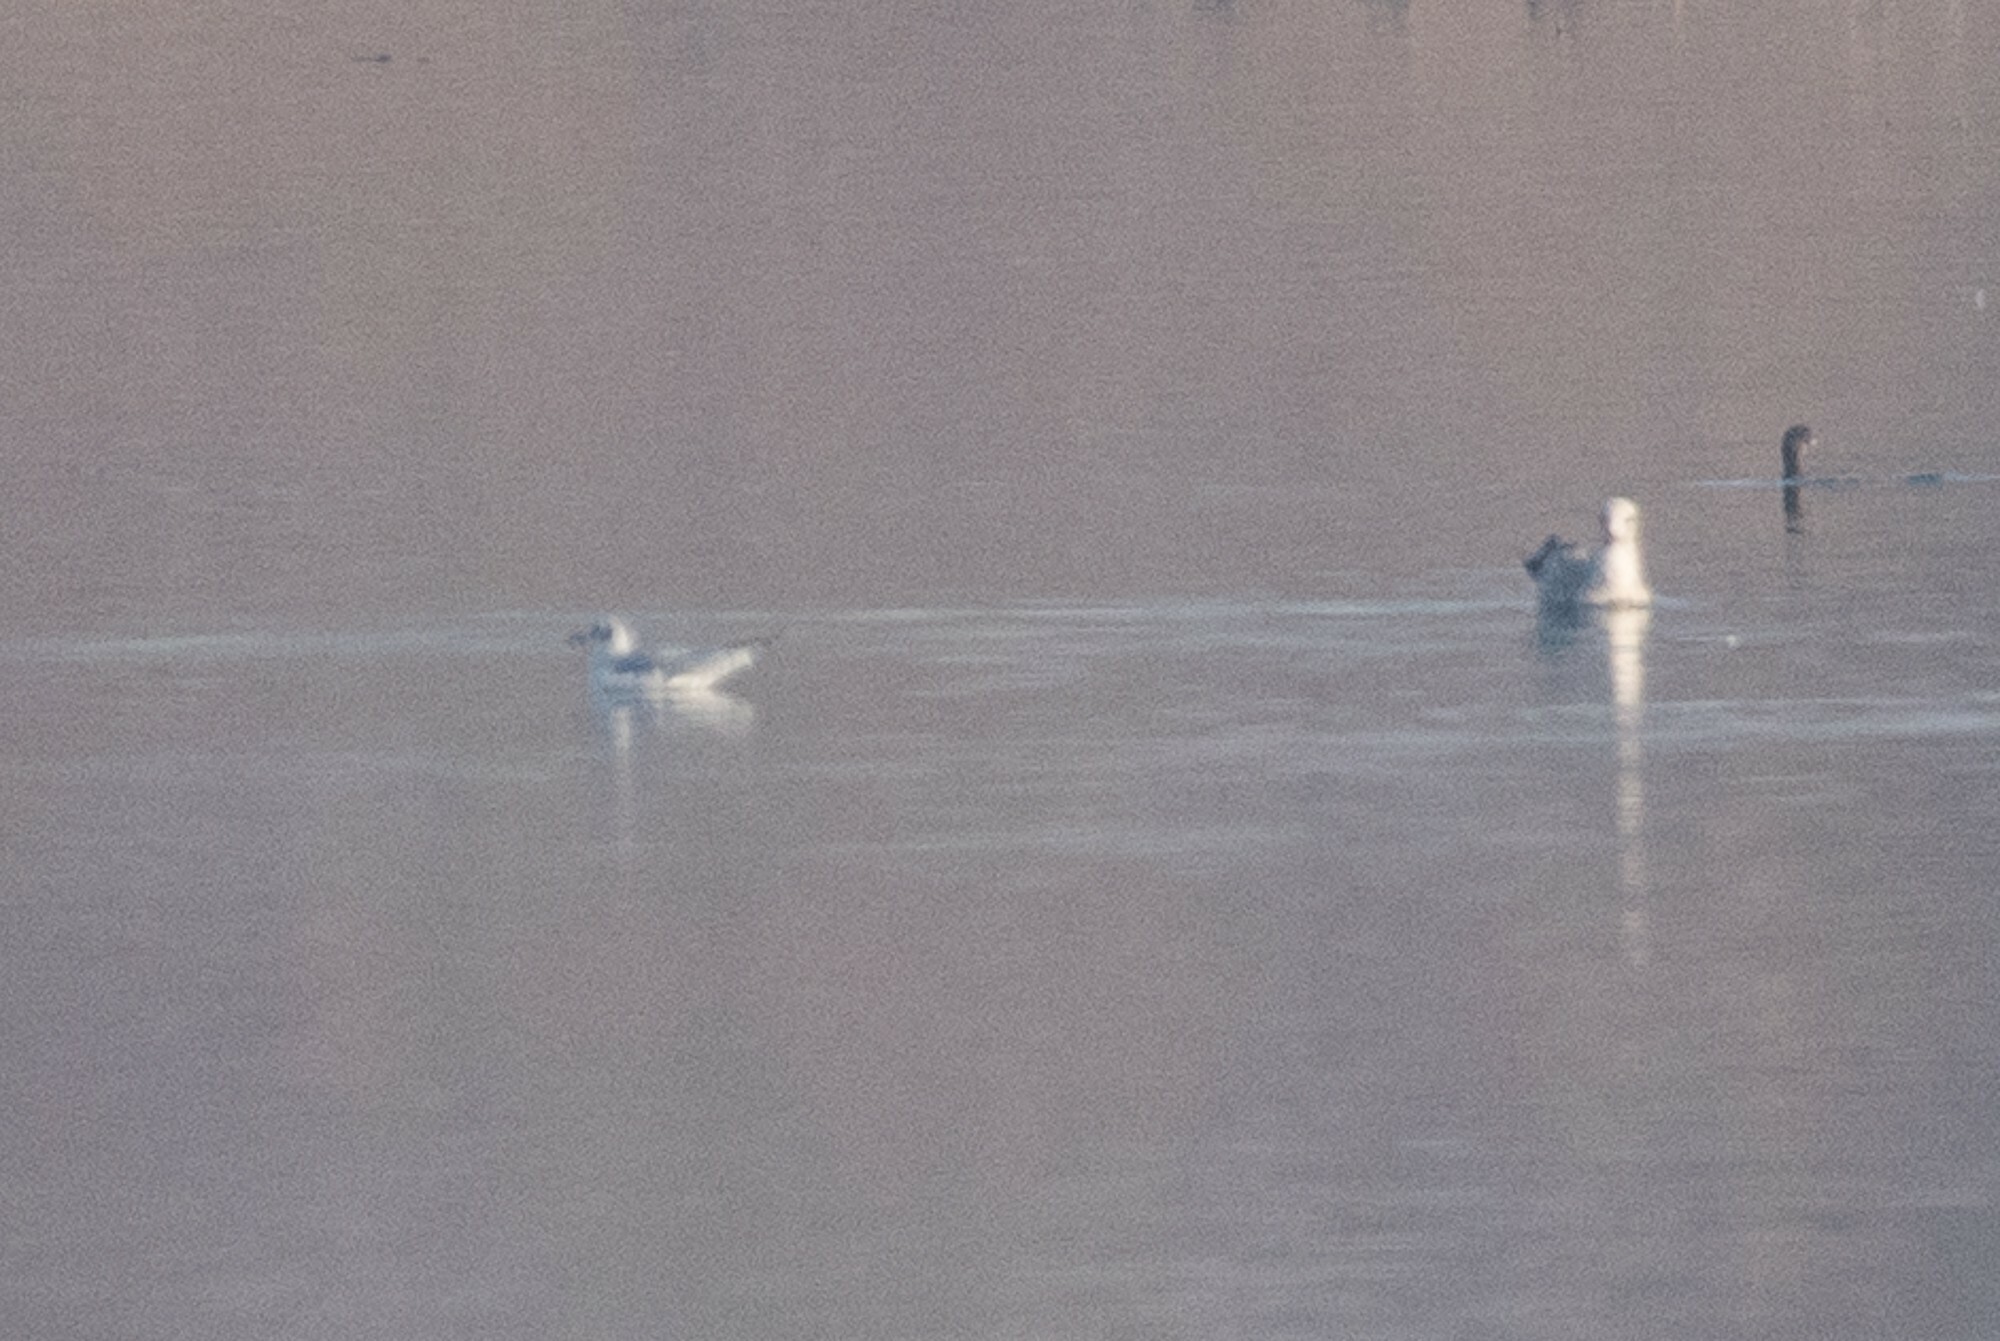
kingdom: Animalia
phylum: Chordata
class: Aves
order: Charadriiformes
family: Laridae
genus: Chroicocephalus
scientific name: Chroicocephalus philadelphia
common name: Bonaparte's gull
